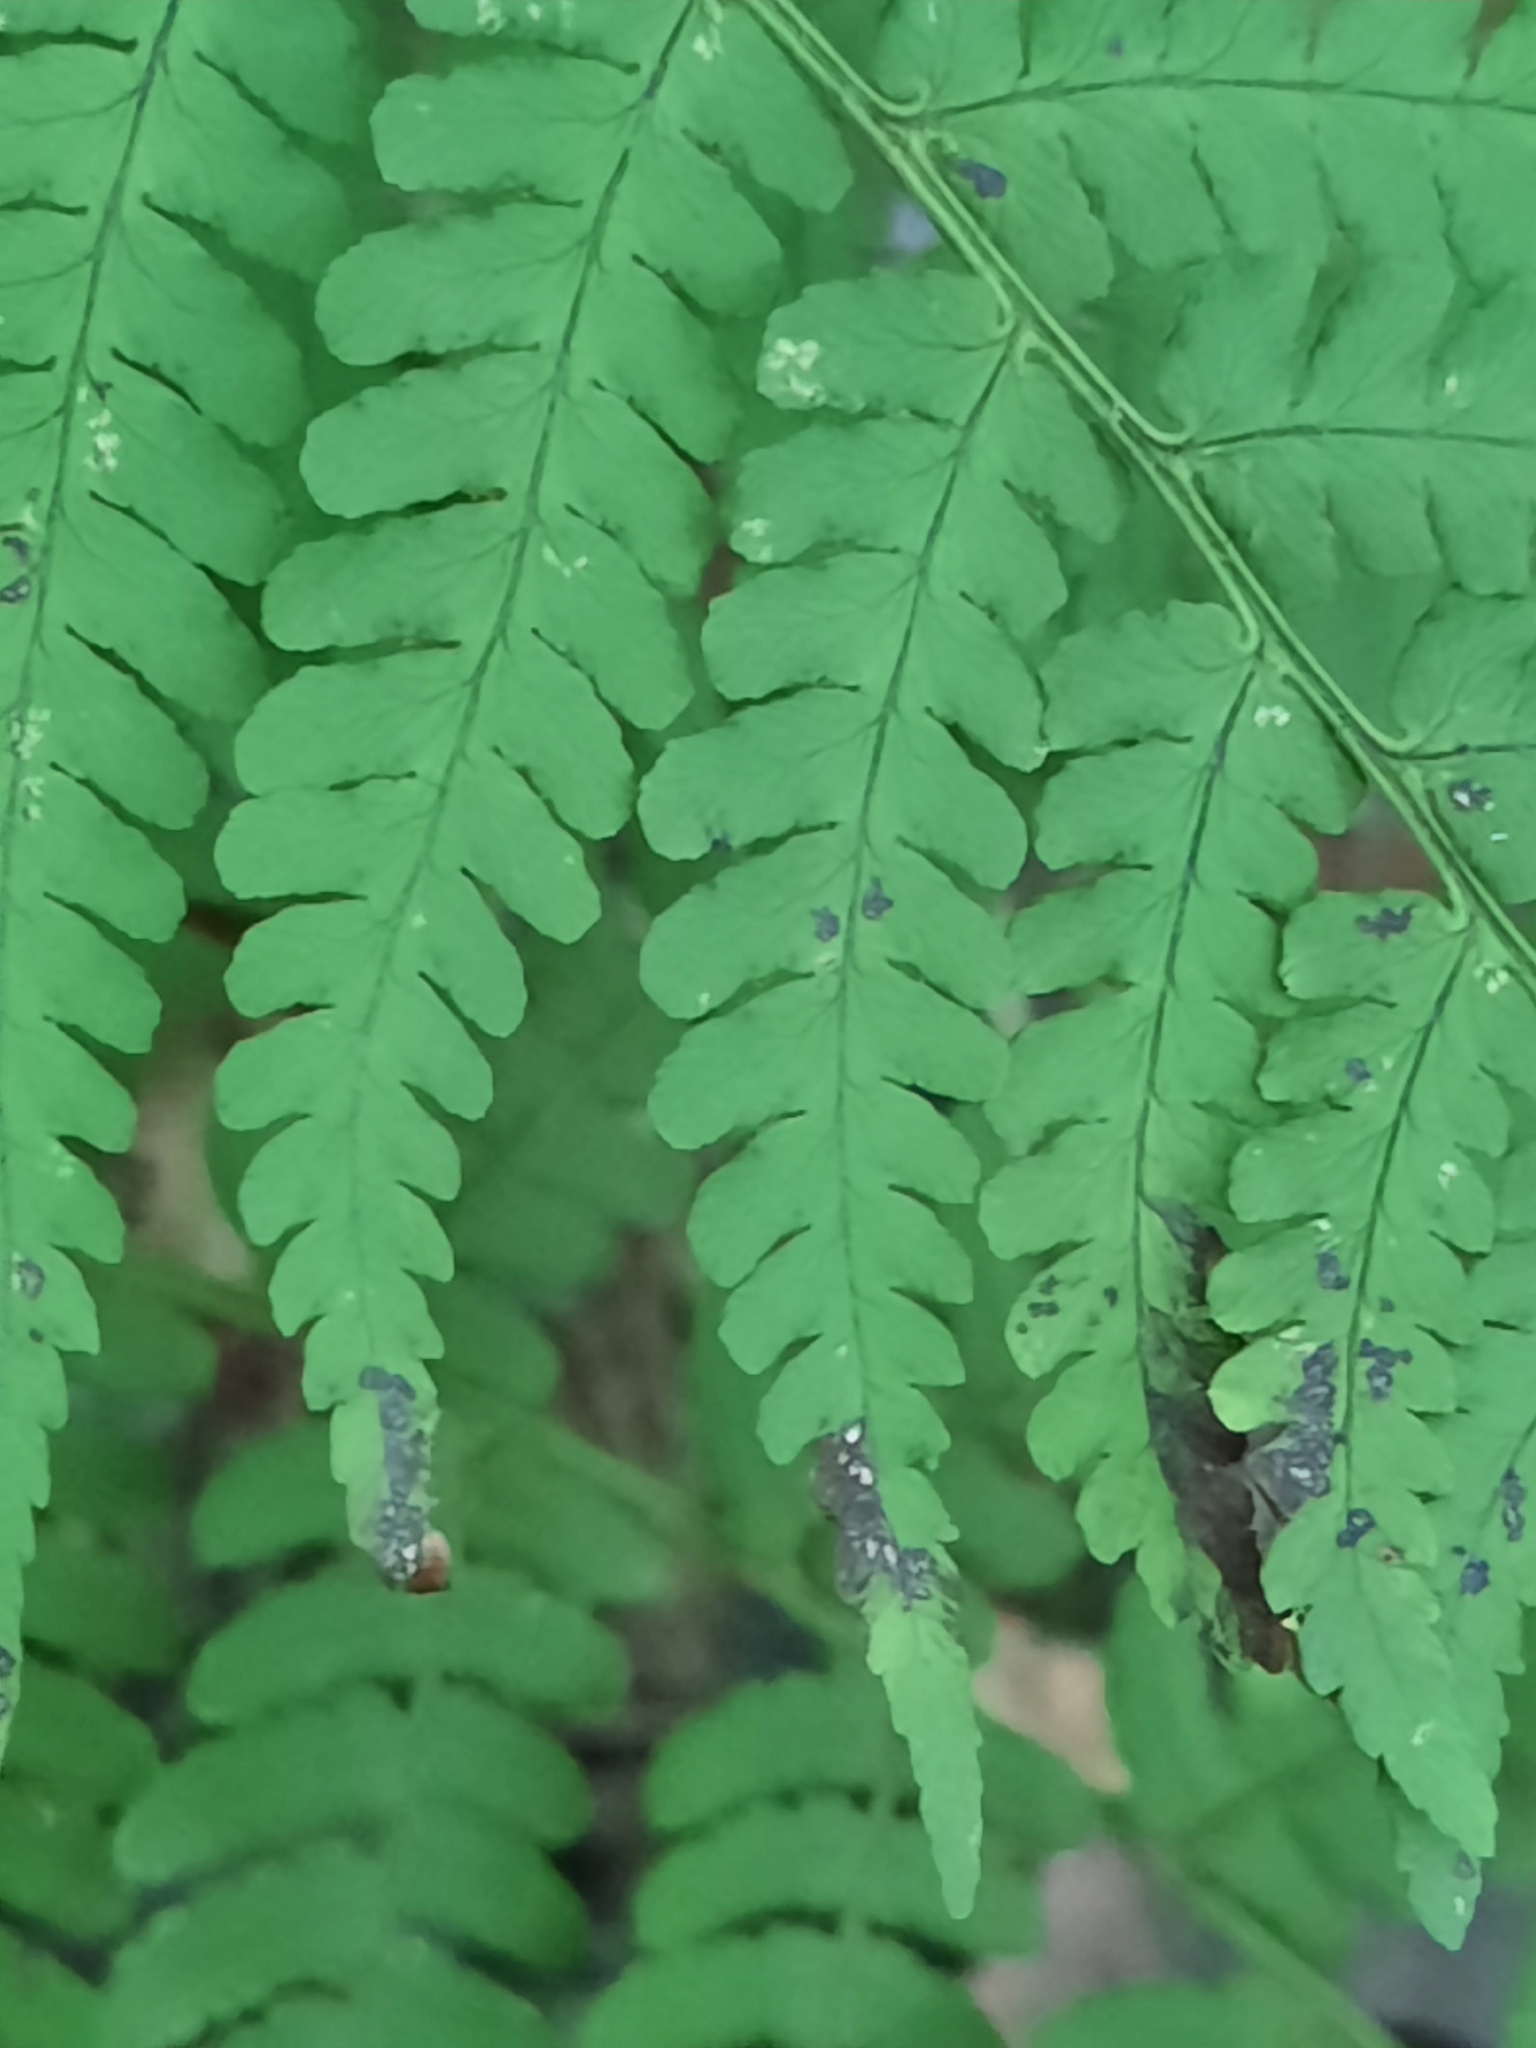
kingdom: Plantae
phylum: Tracheophyta
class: Polypodiopsida
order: Polypodiales
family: Dryopteridaceae
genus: Dryopteris
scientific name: Dryopteris marginalis
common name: Marginal wood fern
